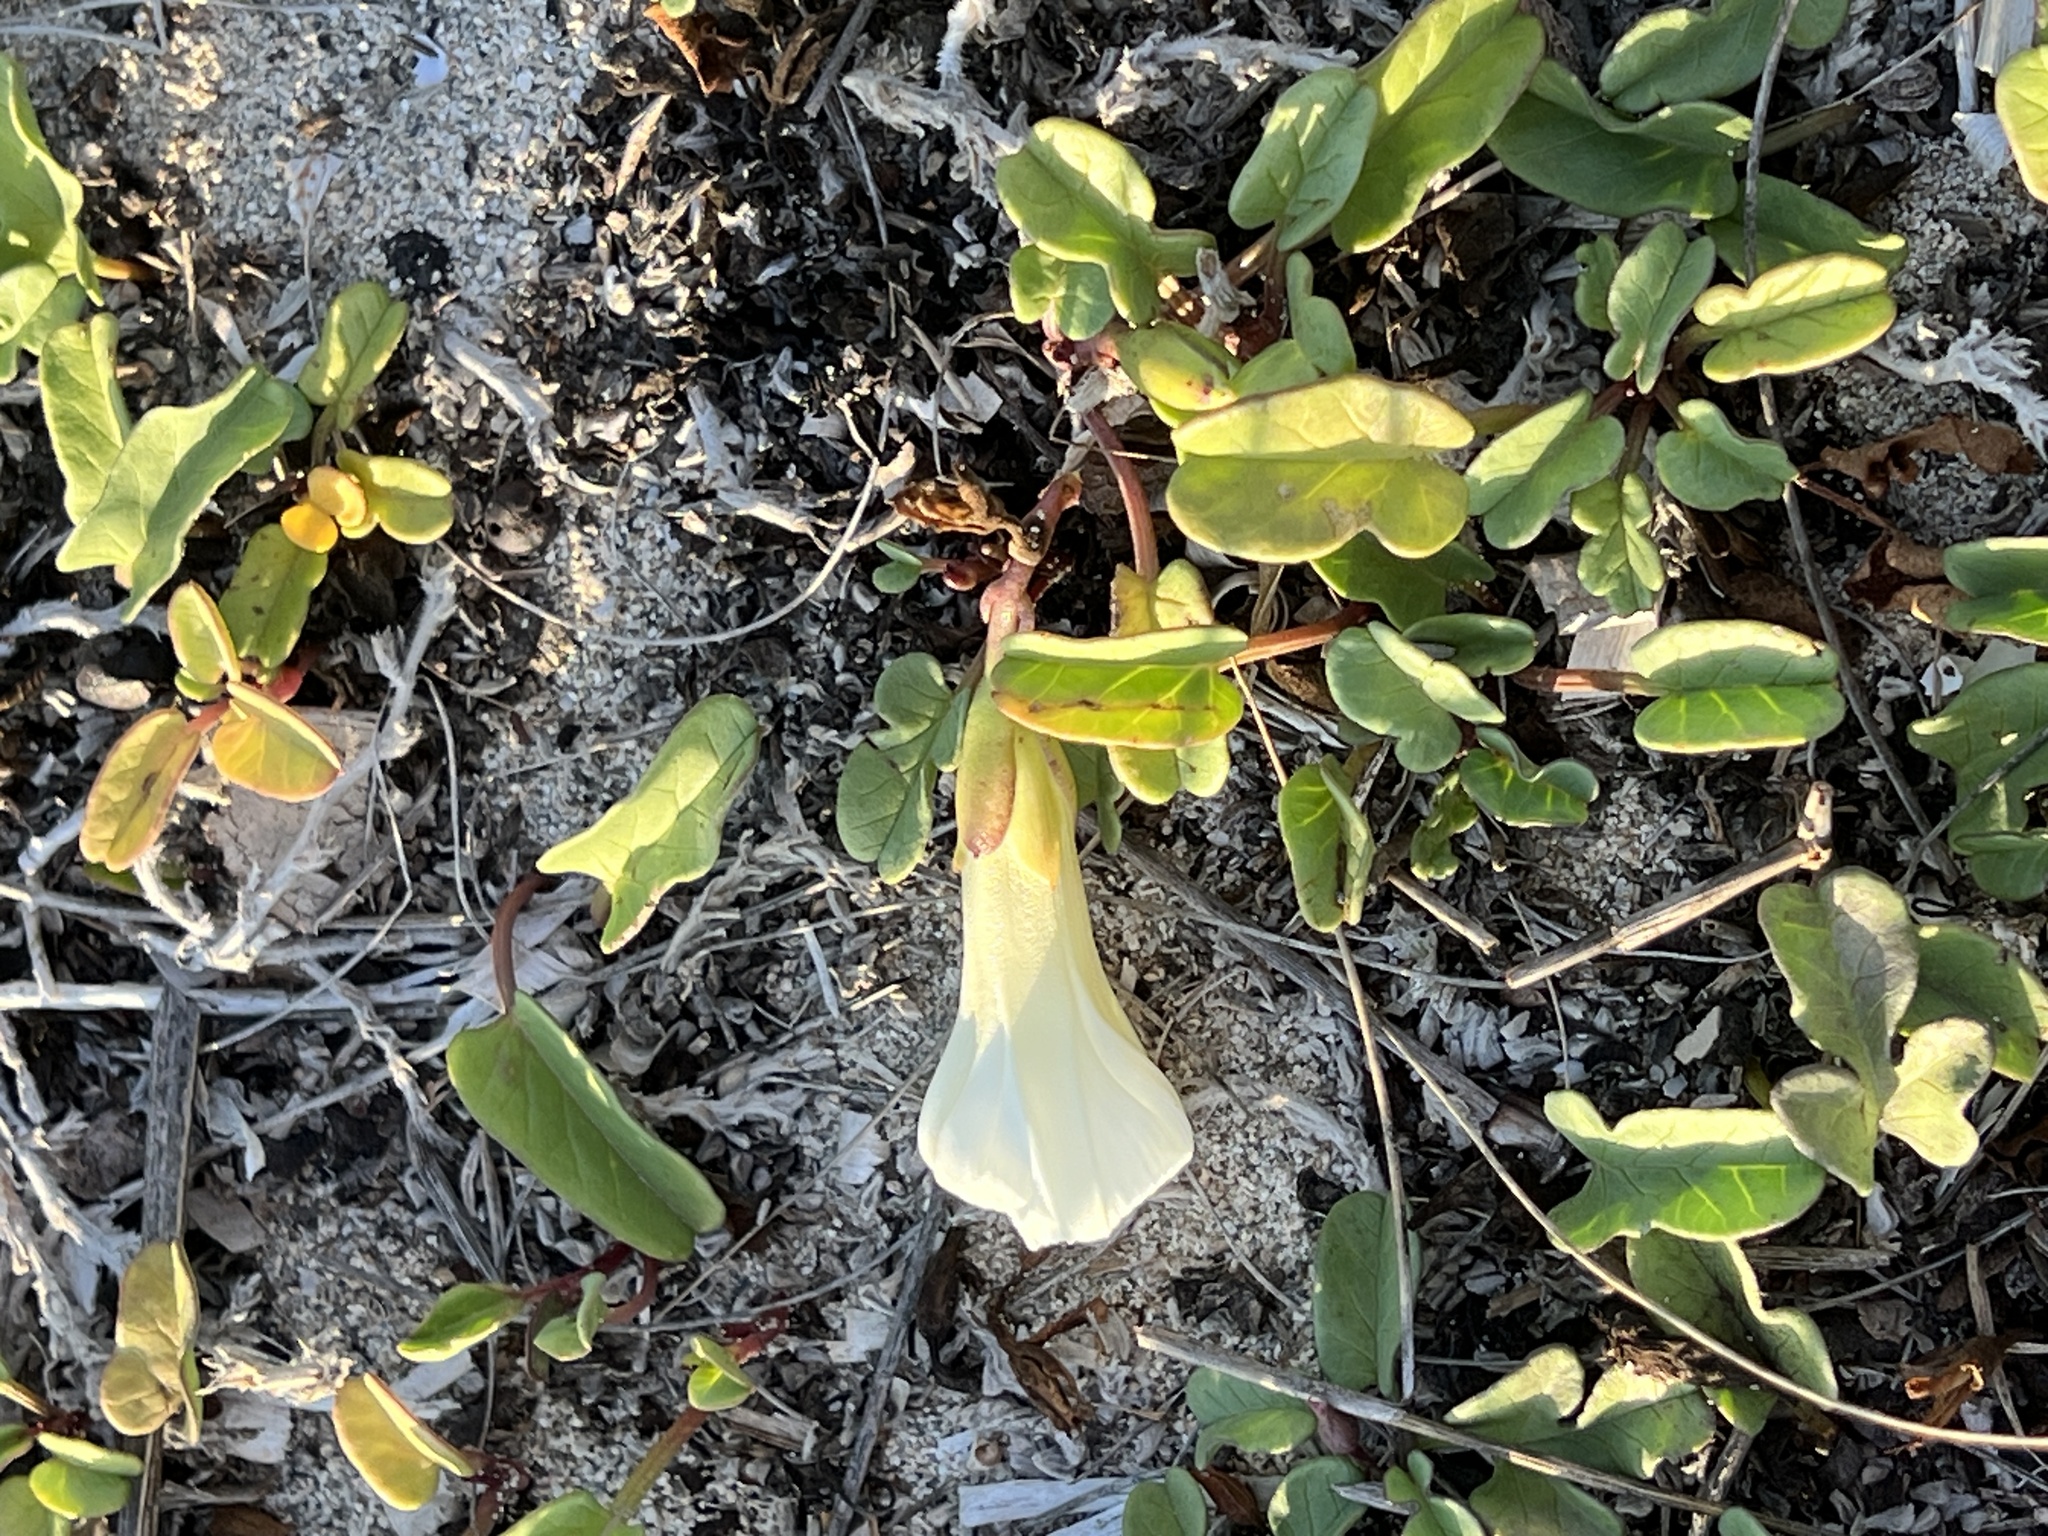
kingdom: Plantae
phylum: Tracheophyta
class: Magnoliopsida
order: Solanales
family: Convolvulaceae
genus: Ipomoea
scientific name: Ipomoea imperati
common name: Fiddle-leaf morning-glory
